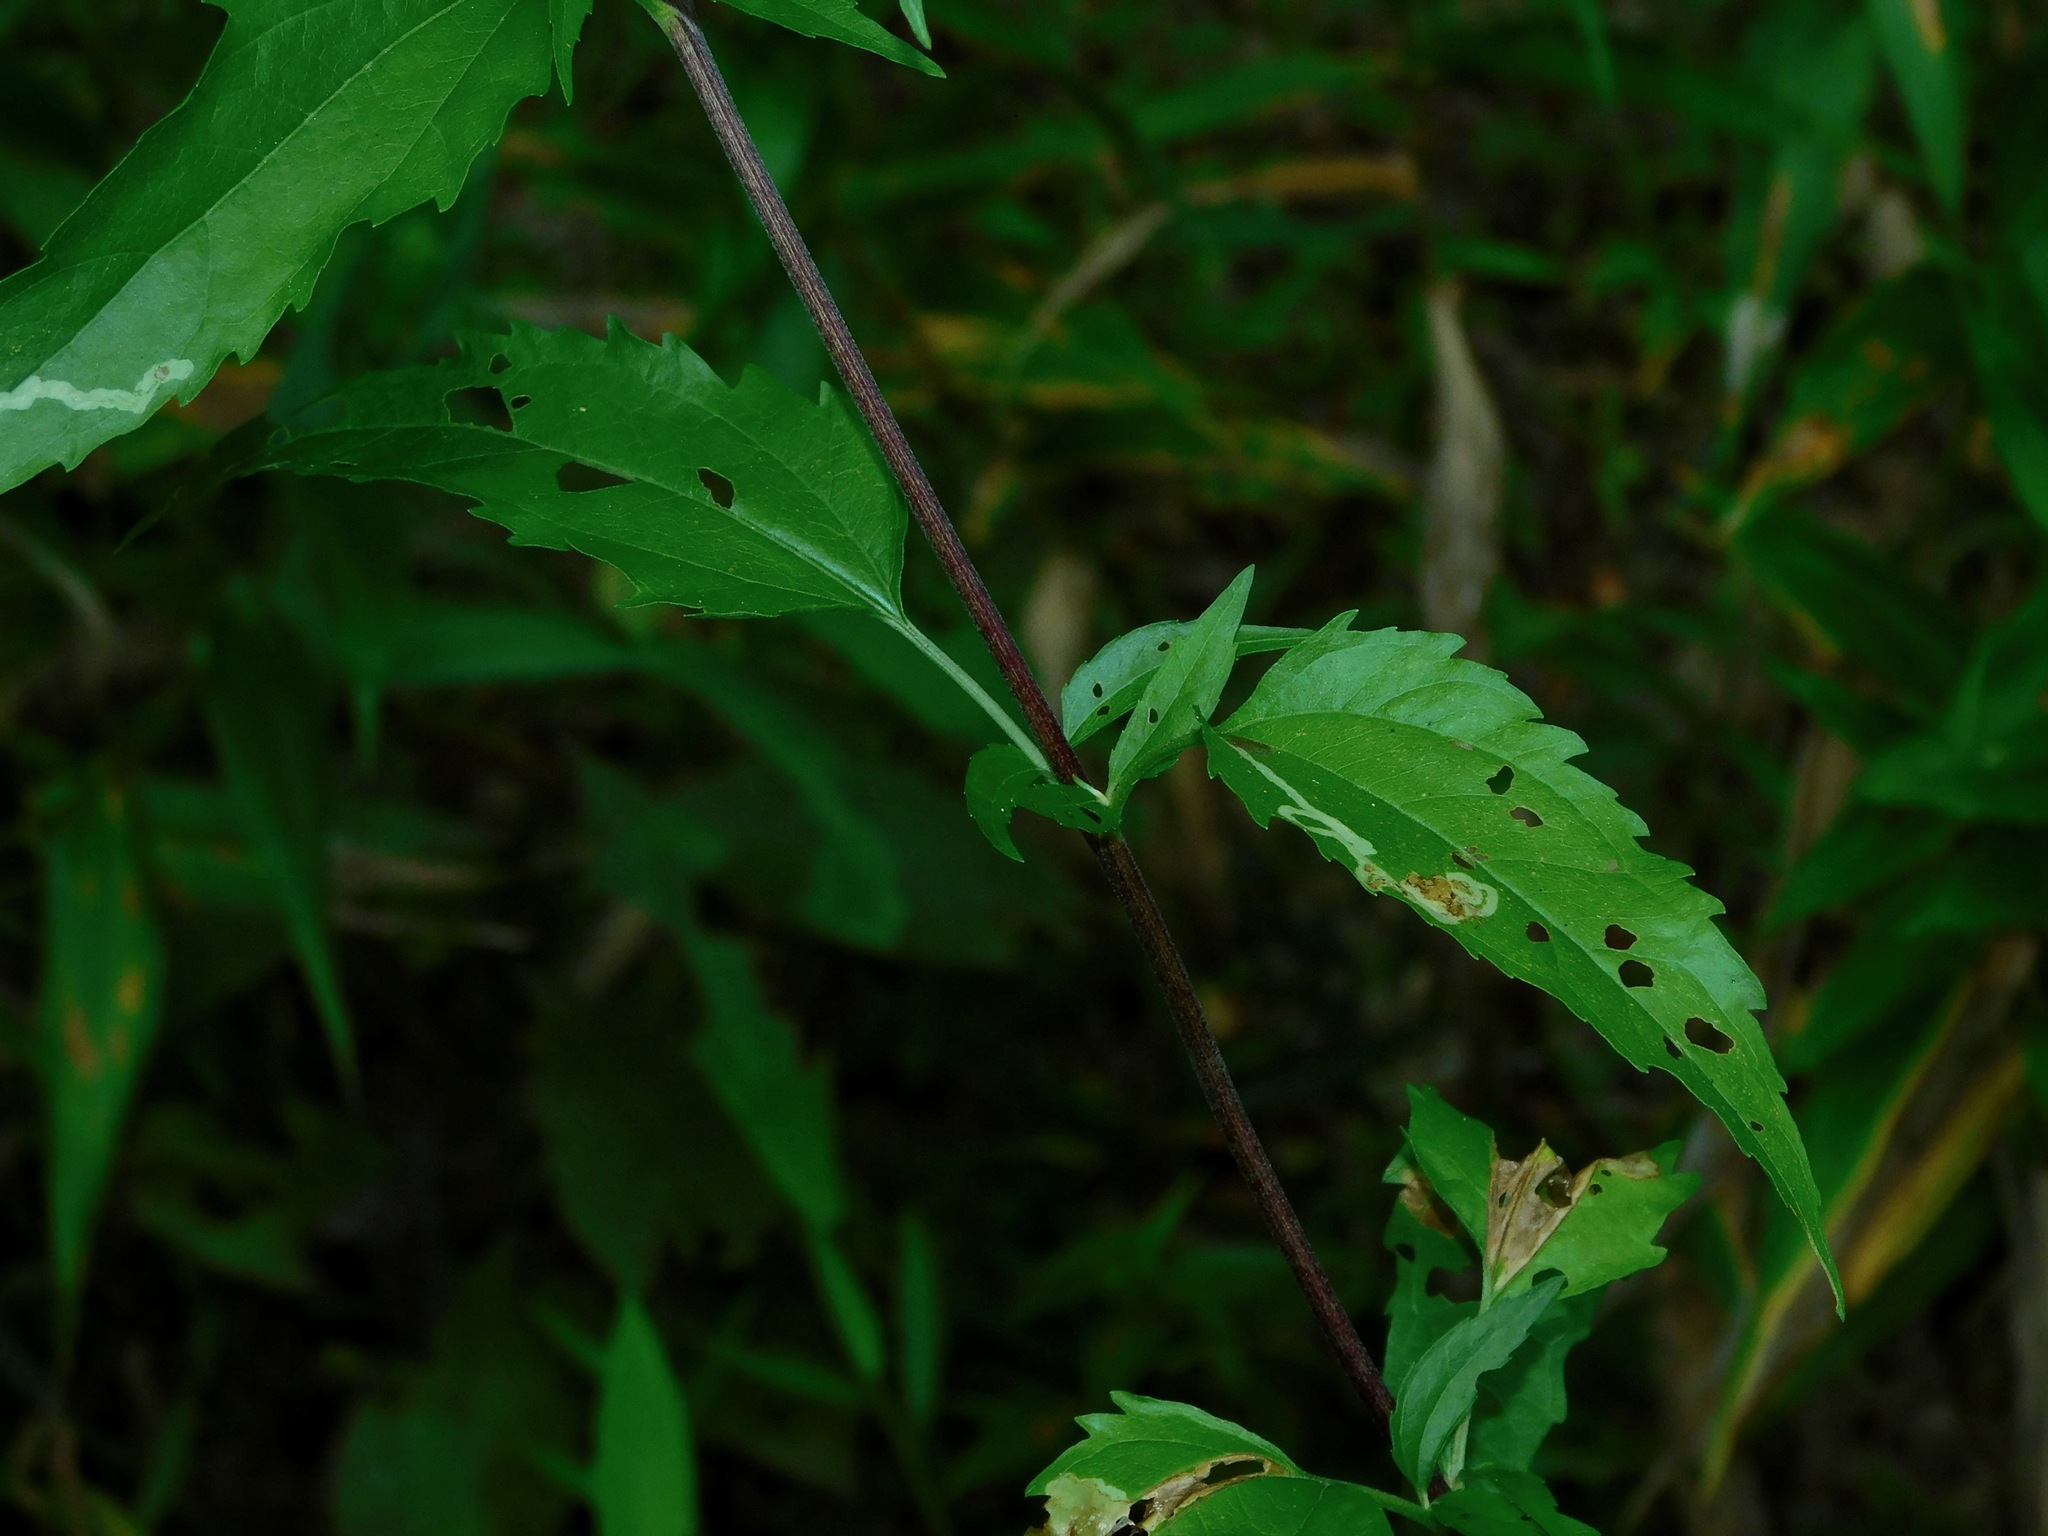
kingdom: Plantae
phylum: Tracheophyta
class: Magnoliopsida
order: Asterales
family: Asteraceae
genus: Eupatorium
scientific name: Eupatorium serotinum
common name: Late boneset
